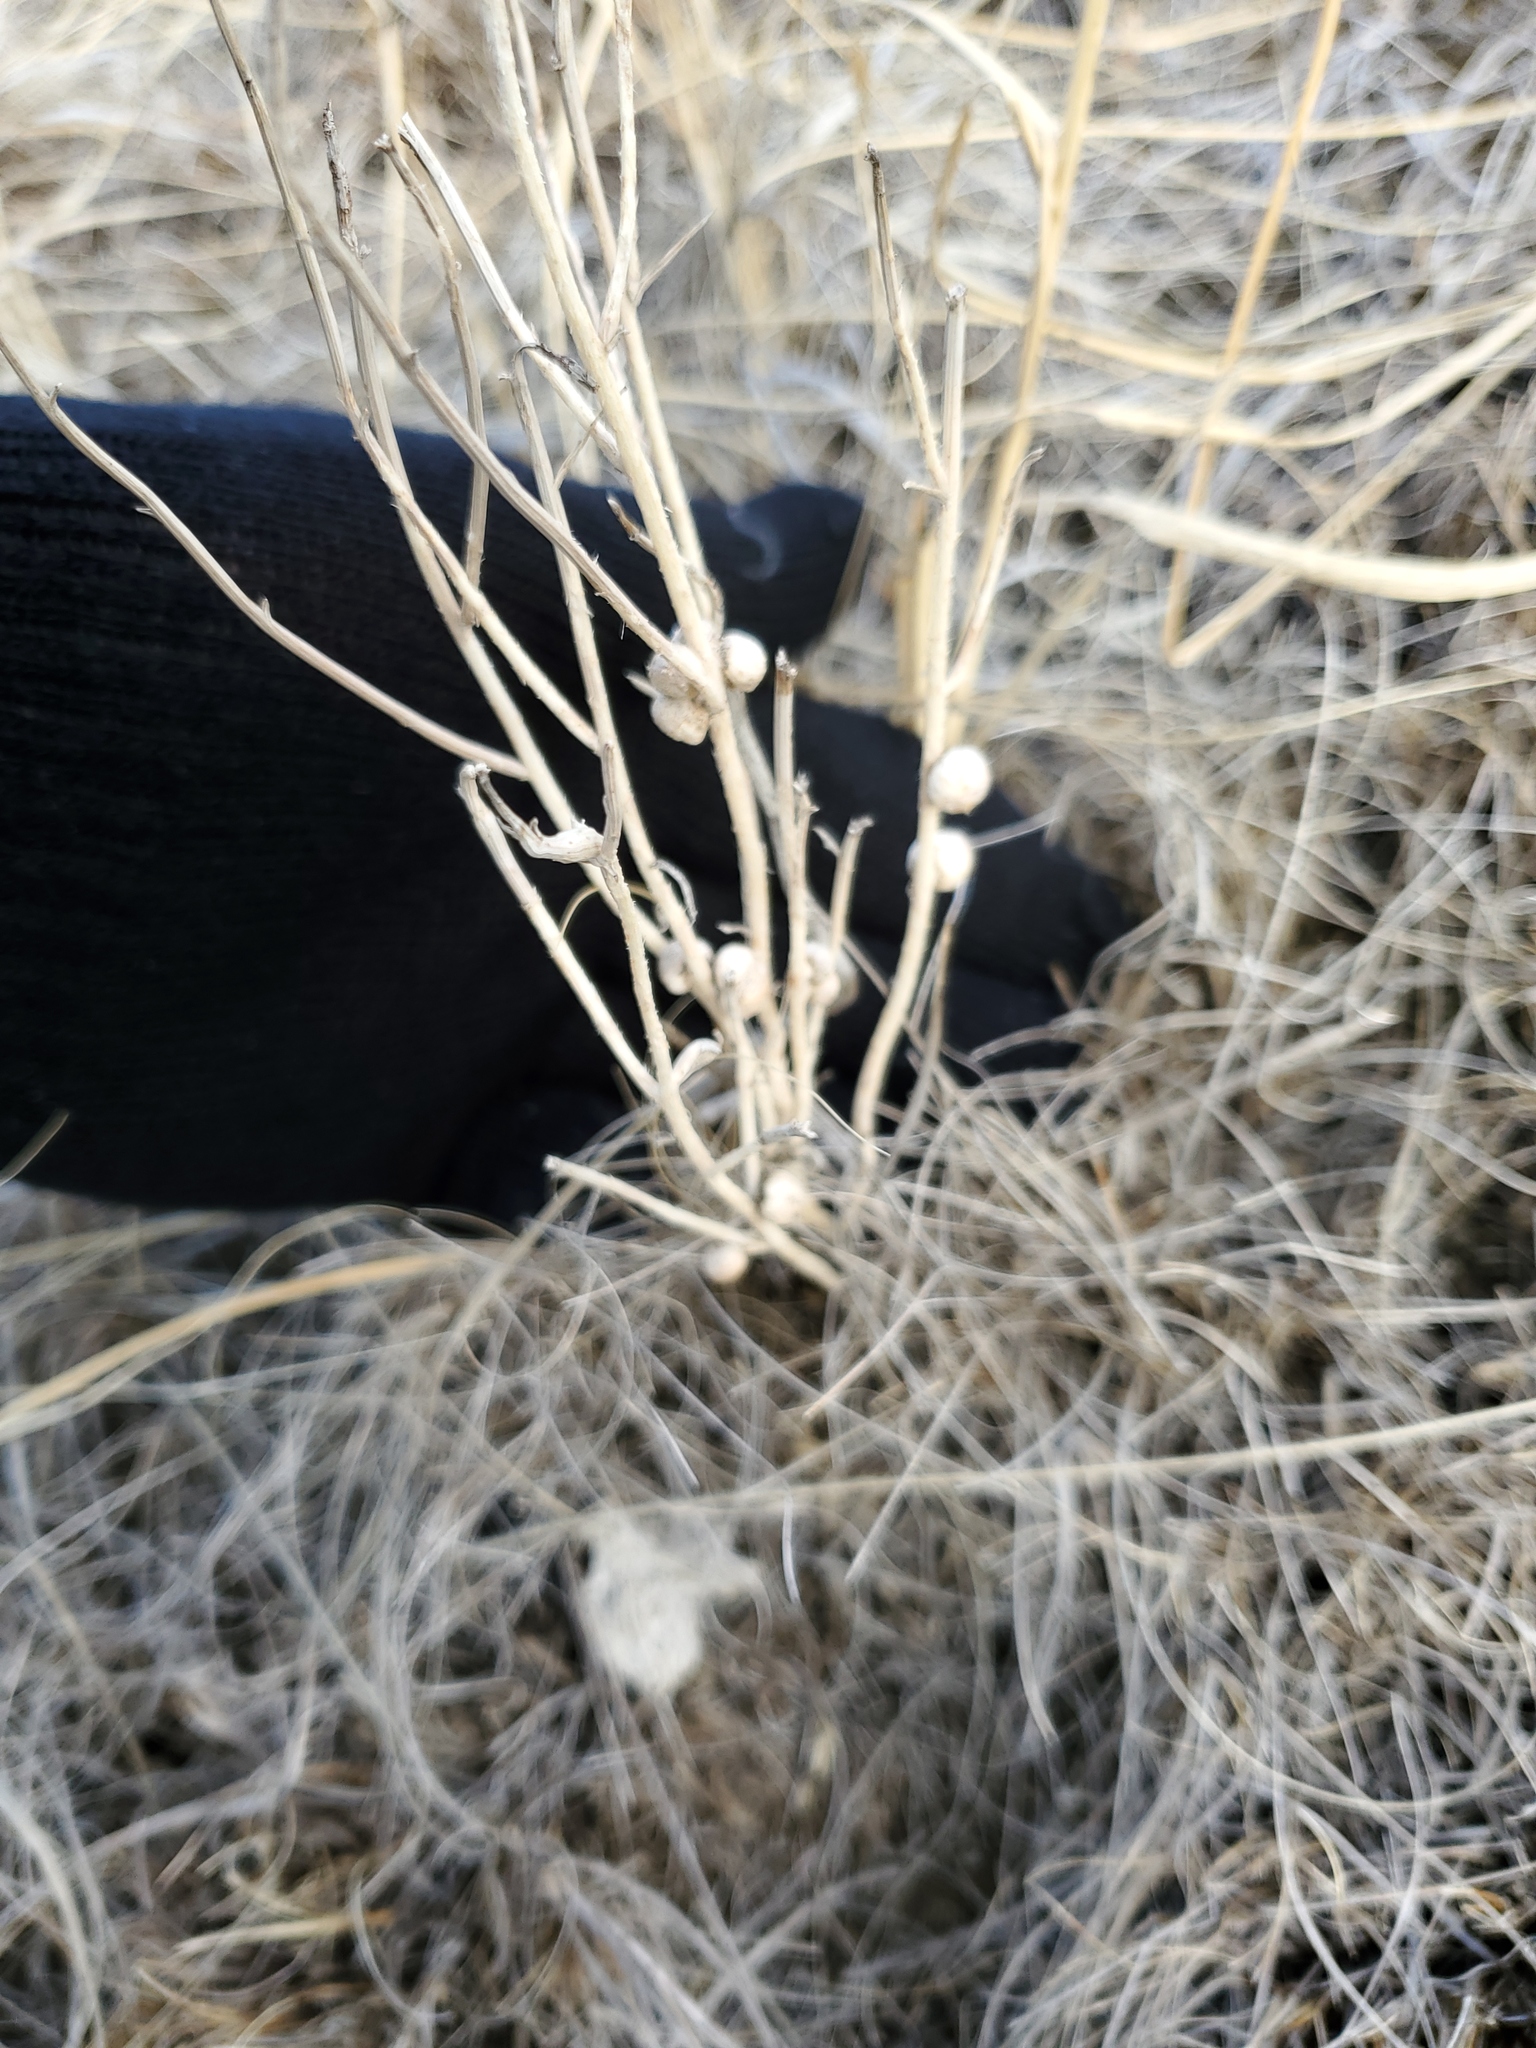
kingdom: Animalia
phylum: Arthropoda
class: Insecta
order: Hymenoptera
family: Cynipidae
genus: Antistrophus
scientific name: Antistrophus
